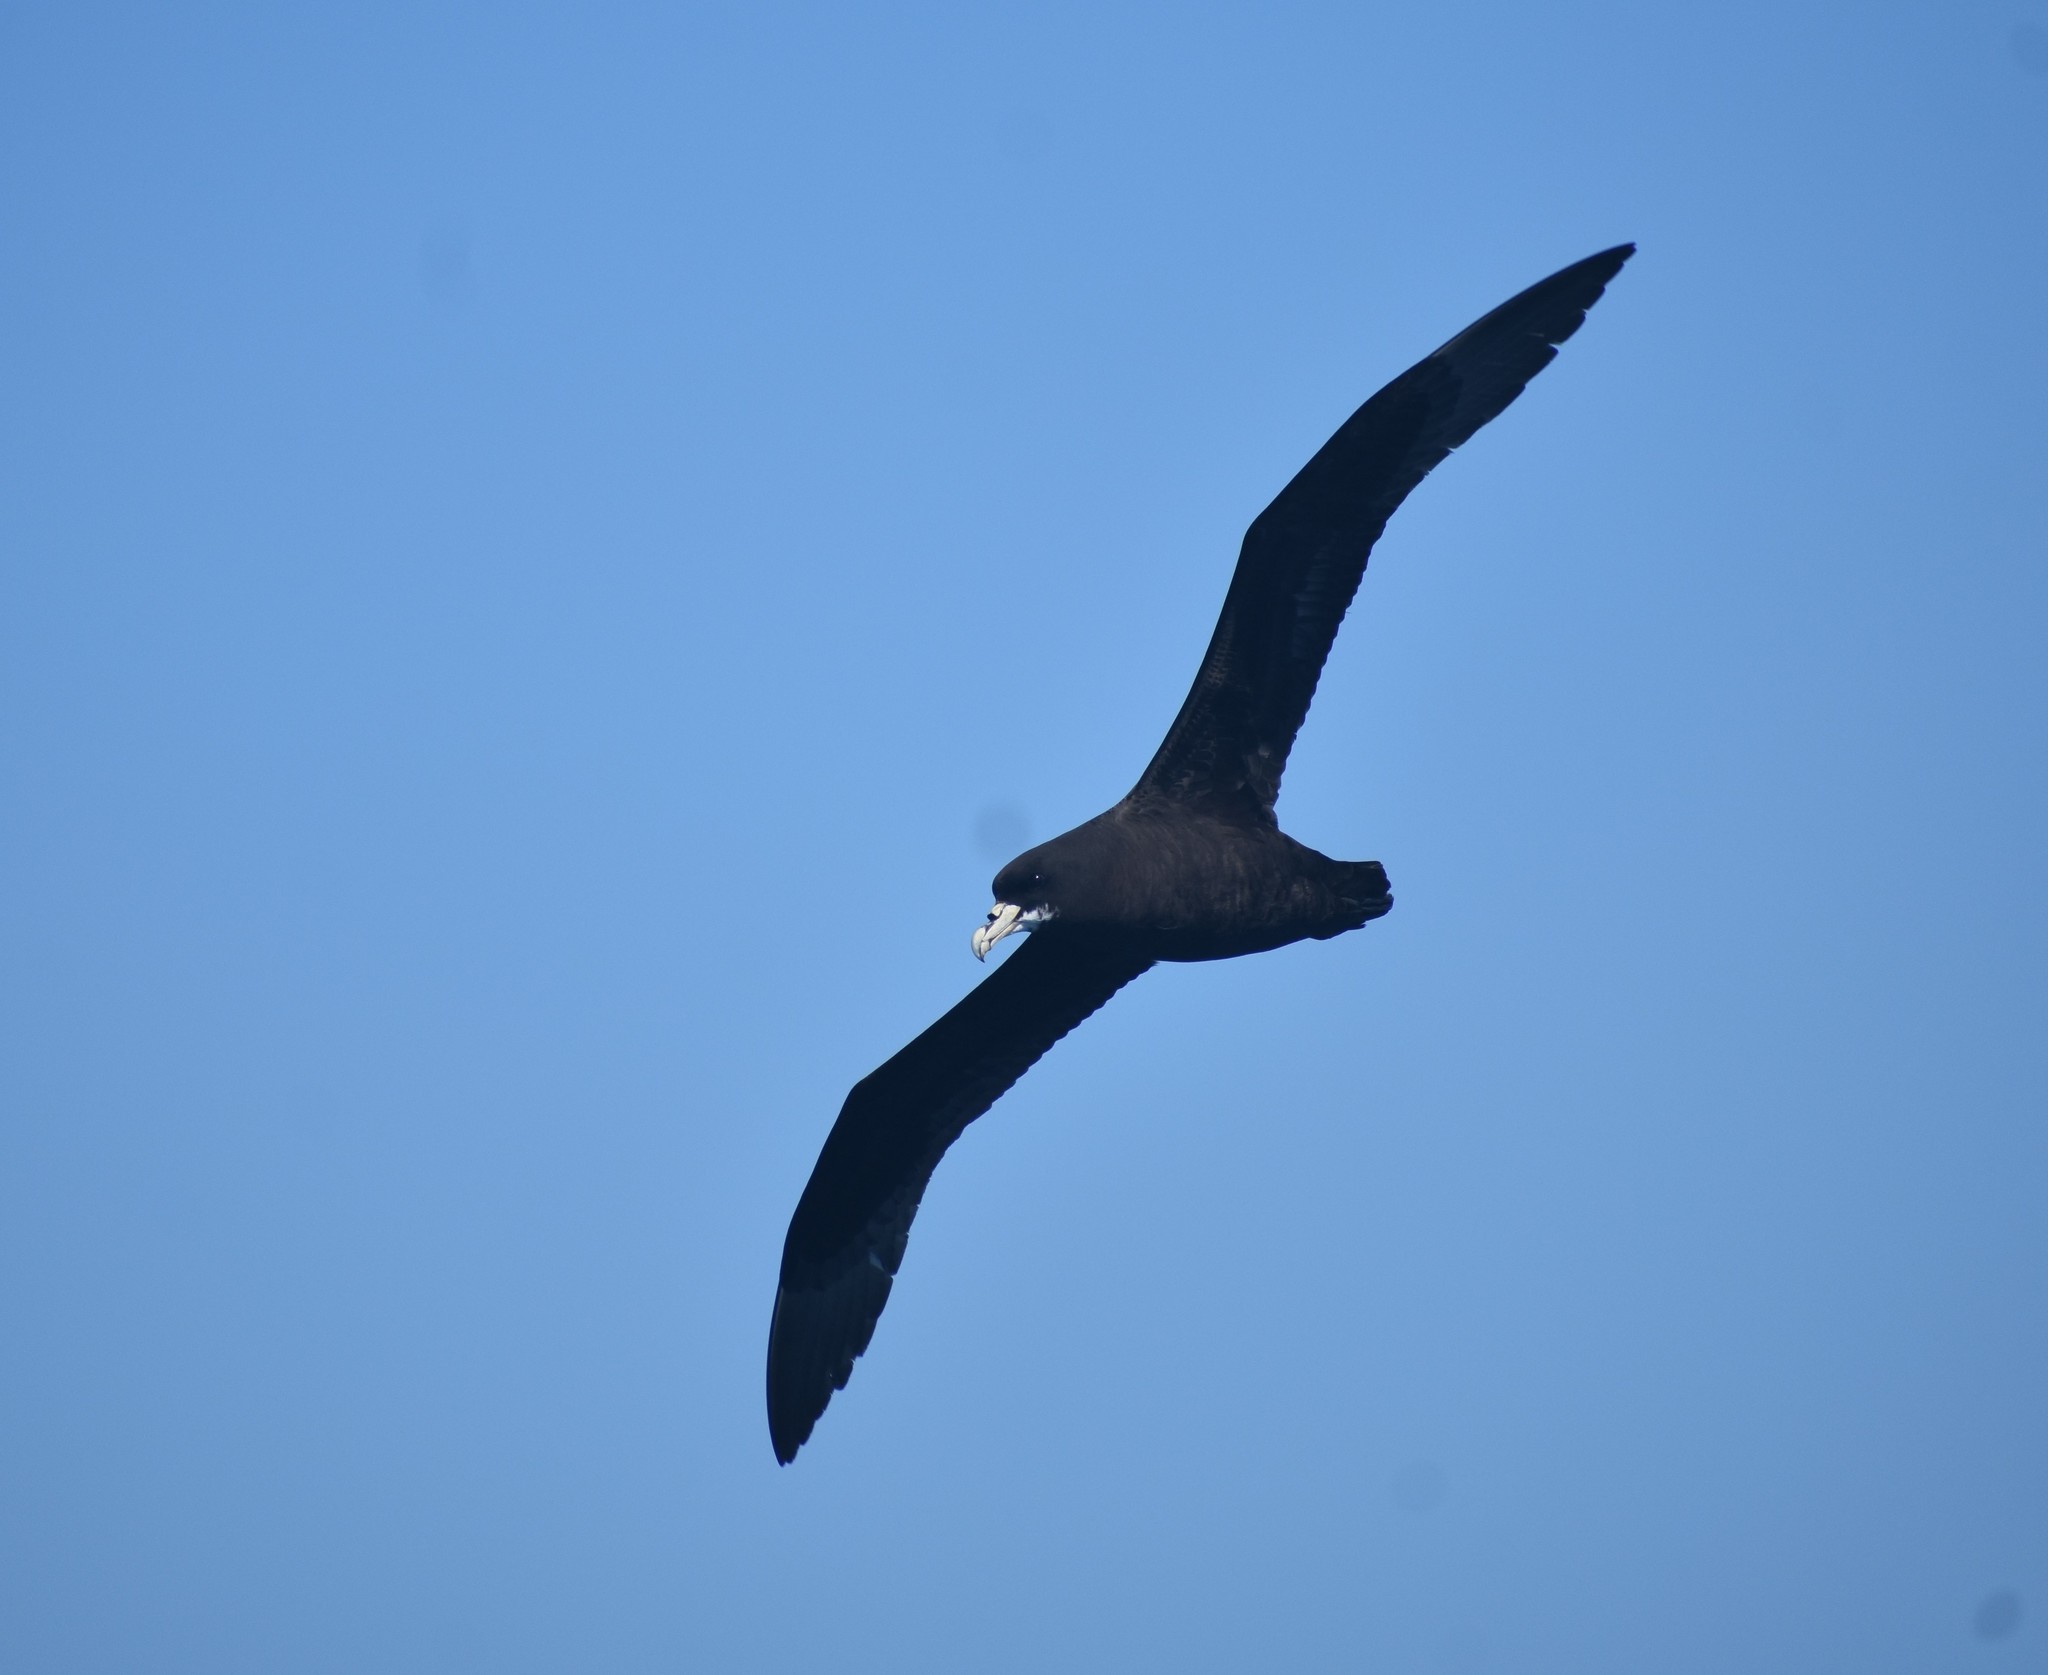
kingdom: Animalia
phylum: Chordata
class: Aves
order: Procellariiformes
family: Procellariidae
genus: Procellaria
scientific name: Procellaria aequinoctialis
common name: White-chinned petrel
